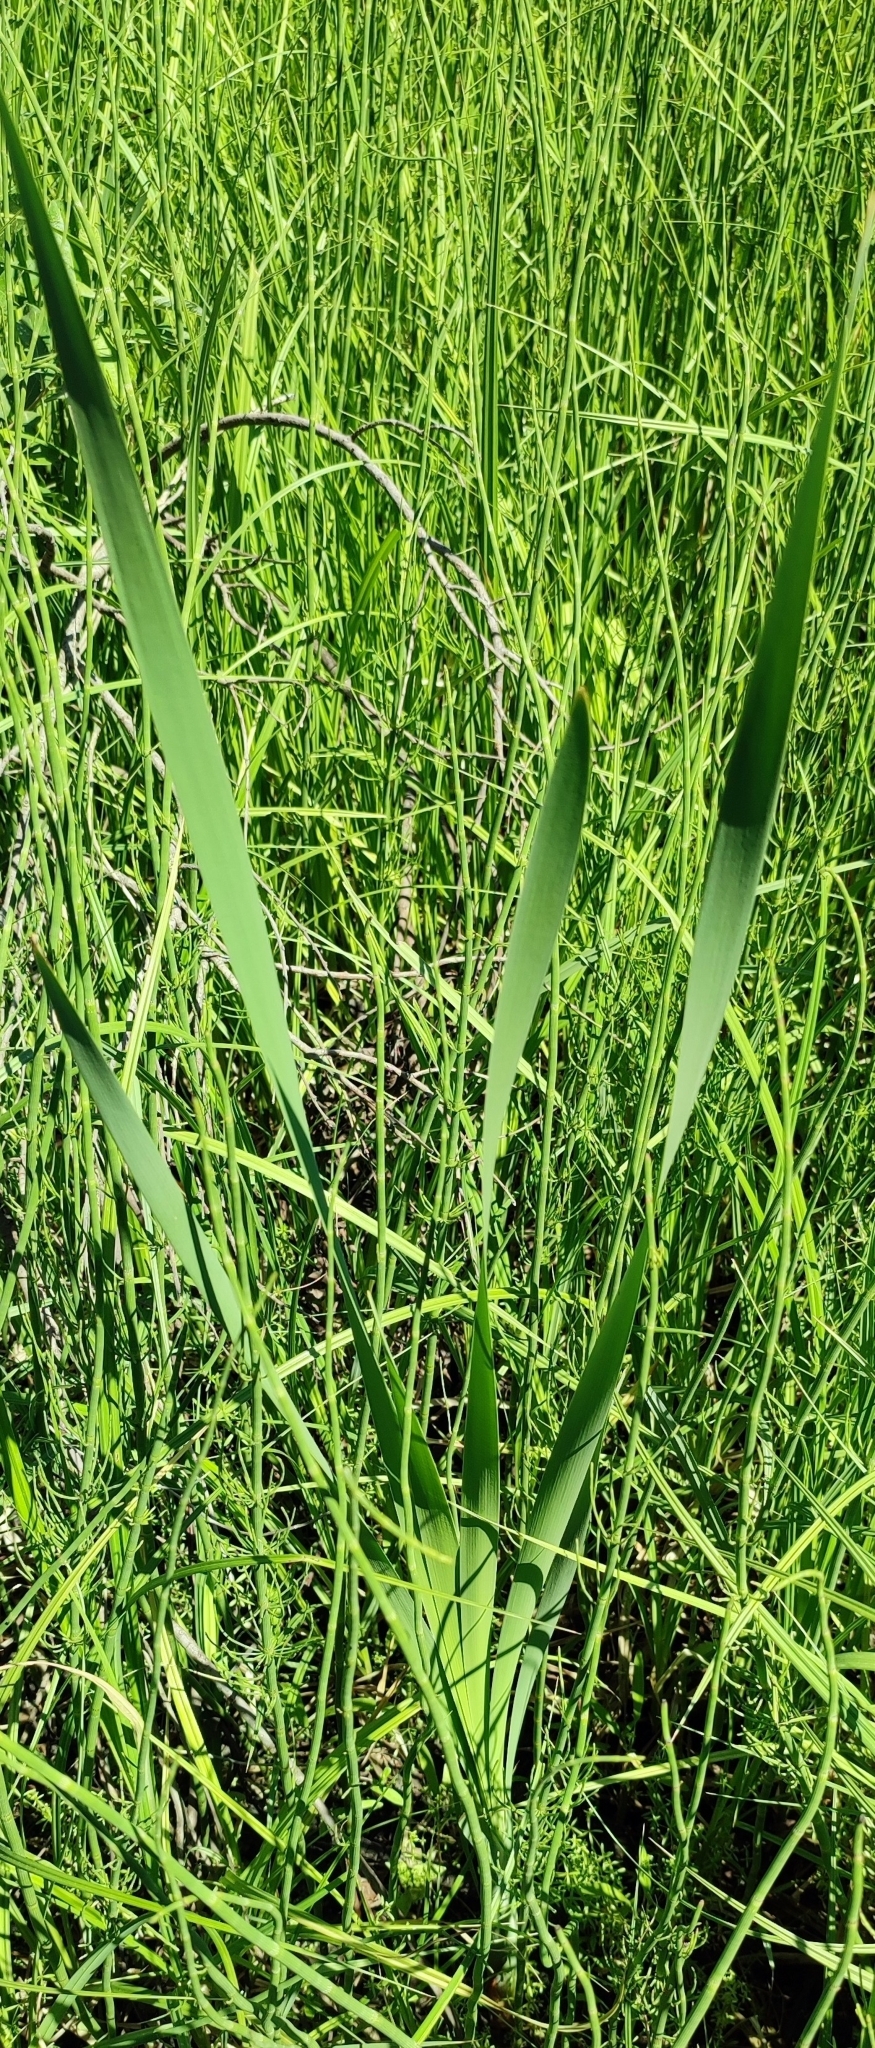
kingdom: Plantae
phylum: Tracheophyta
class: Liliopsida
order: Poales
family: Typhaceae
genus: Typha
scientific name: Typha latifolia
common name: Broadleaf cattail
